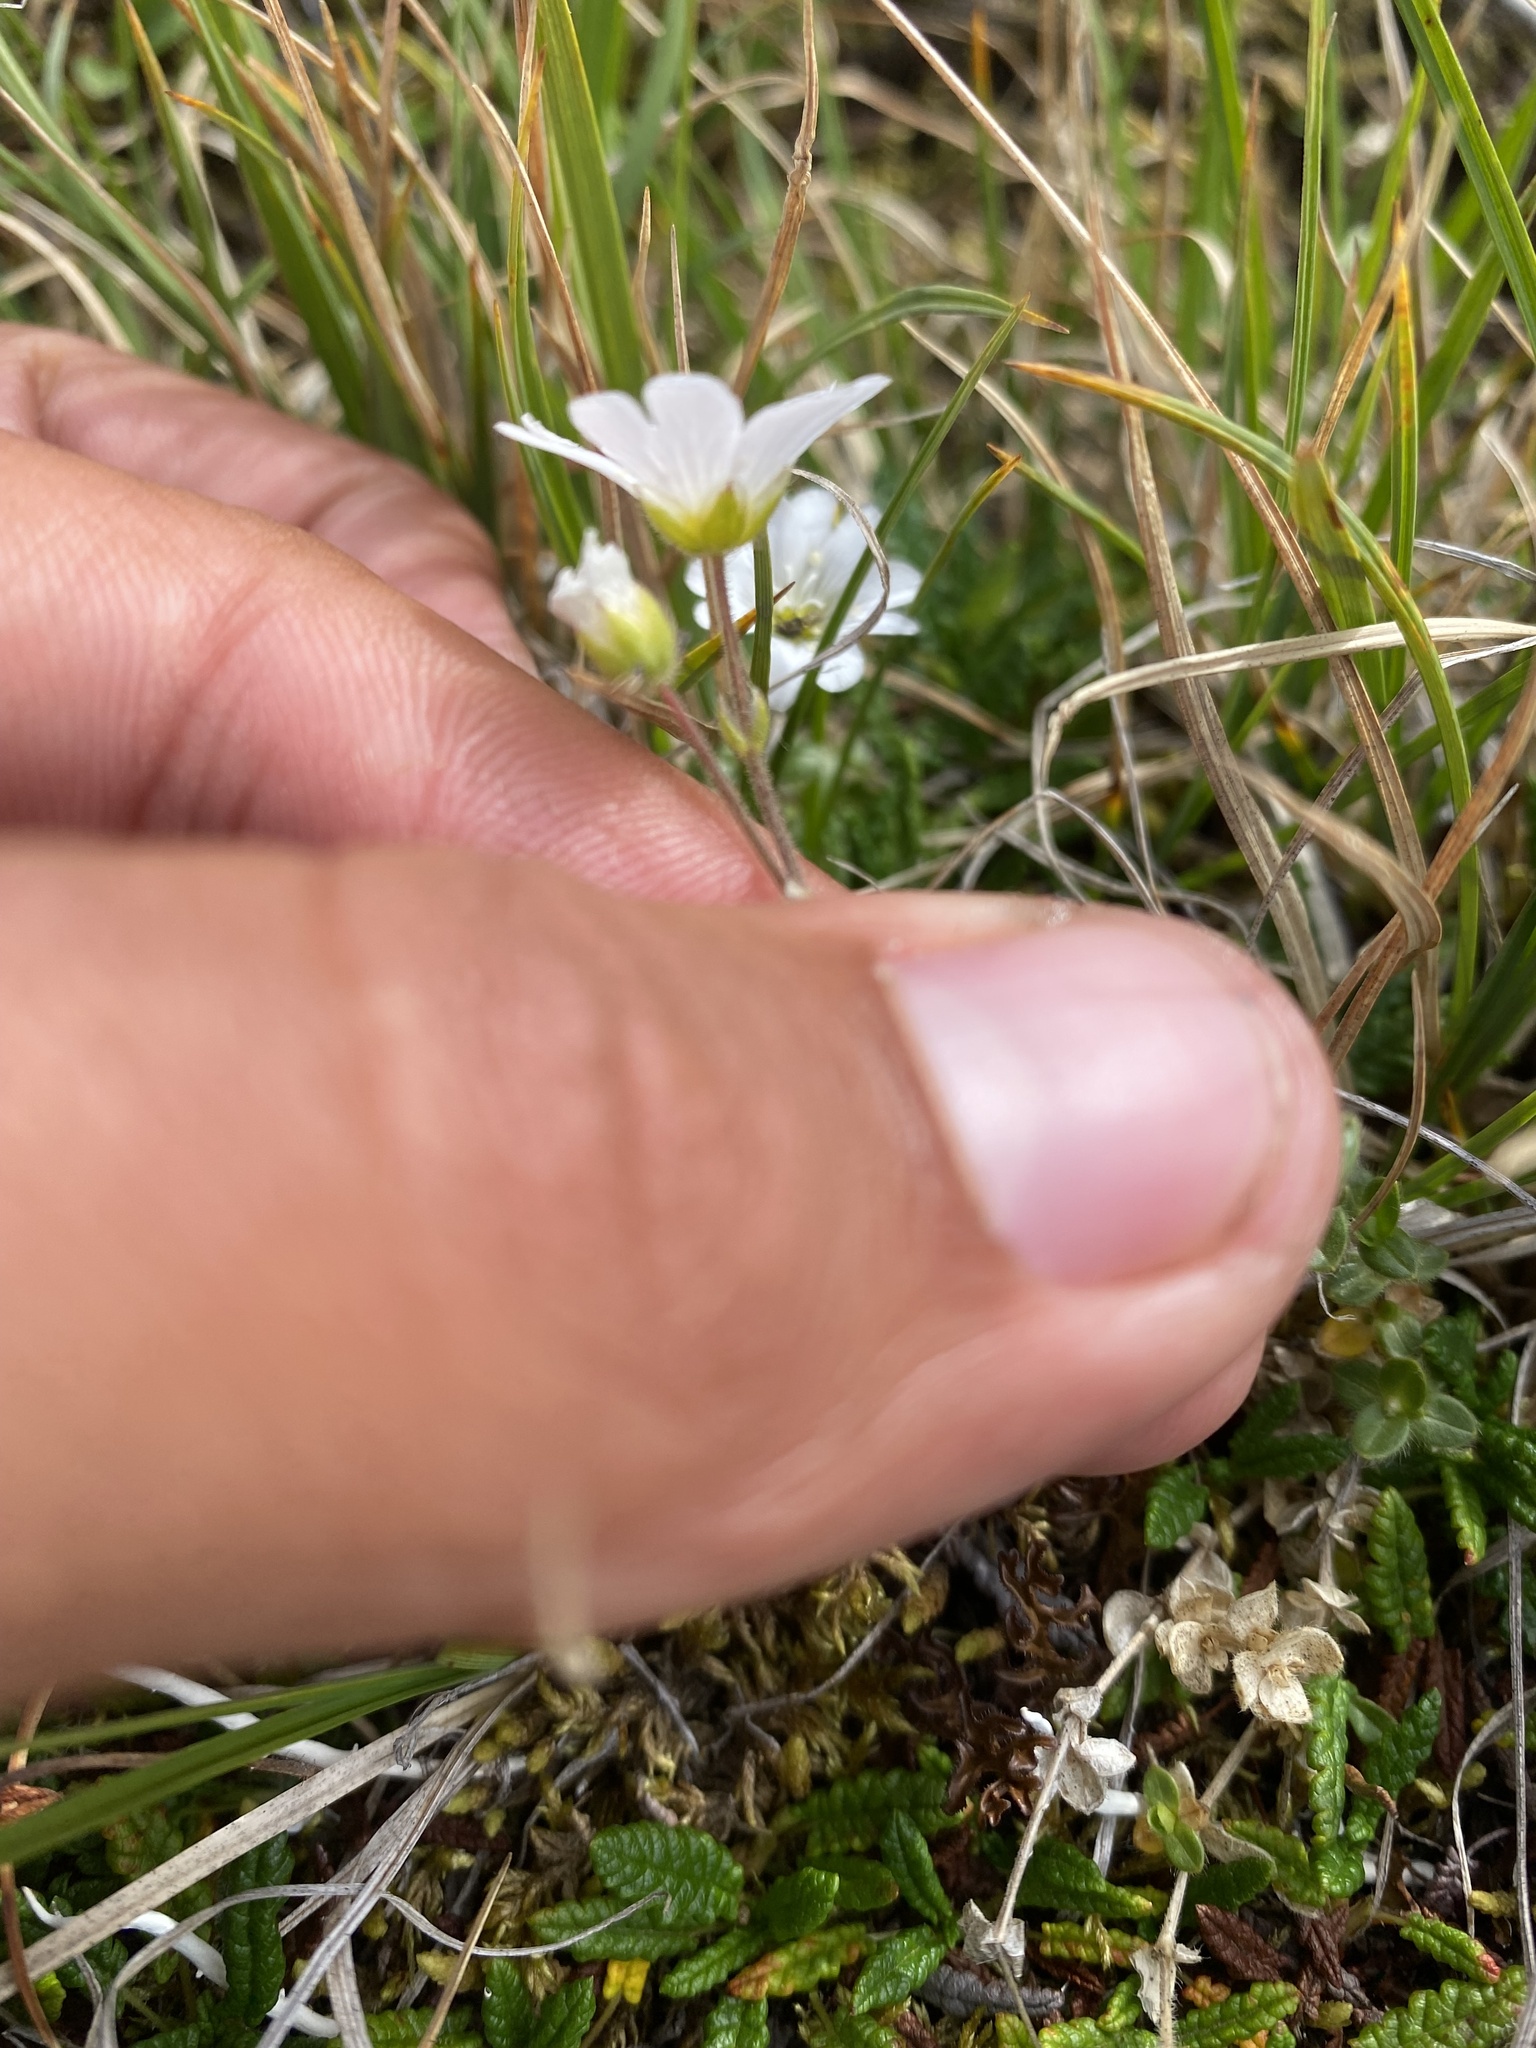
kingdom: Plantae
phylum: Tracheophyta
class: Magnoliopsida
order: Caryophyllales
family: Caryophyllaceae
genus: Cerastium
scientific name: Cerastium regelii
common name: Regel's chickweed
